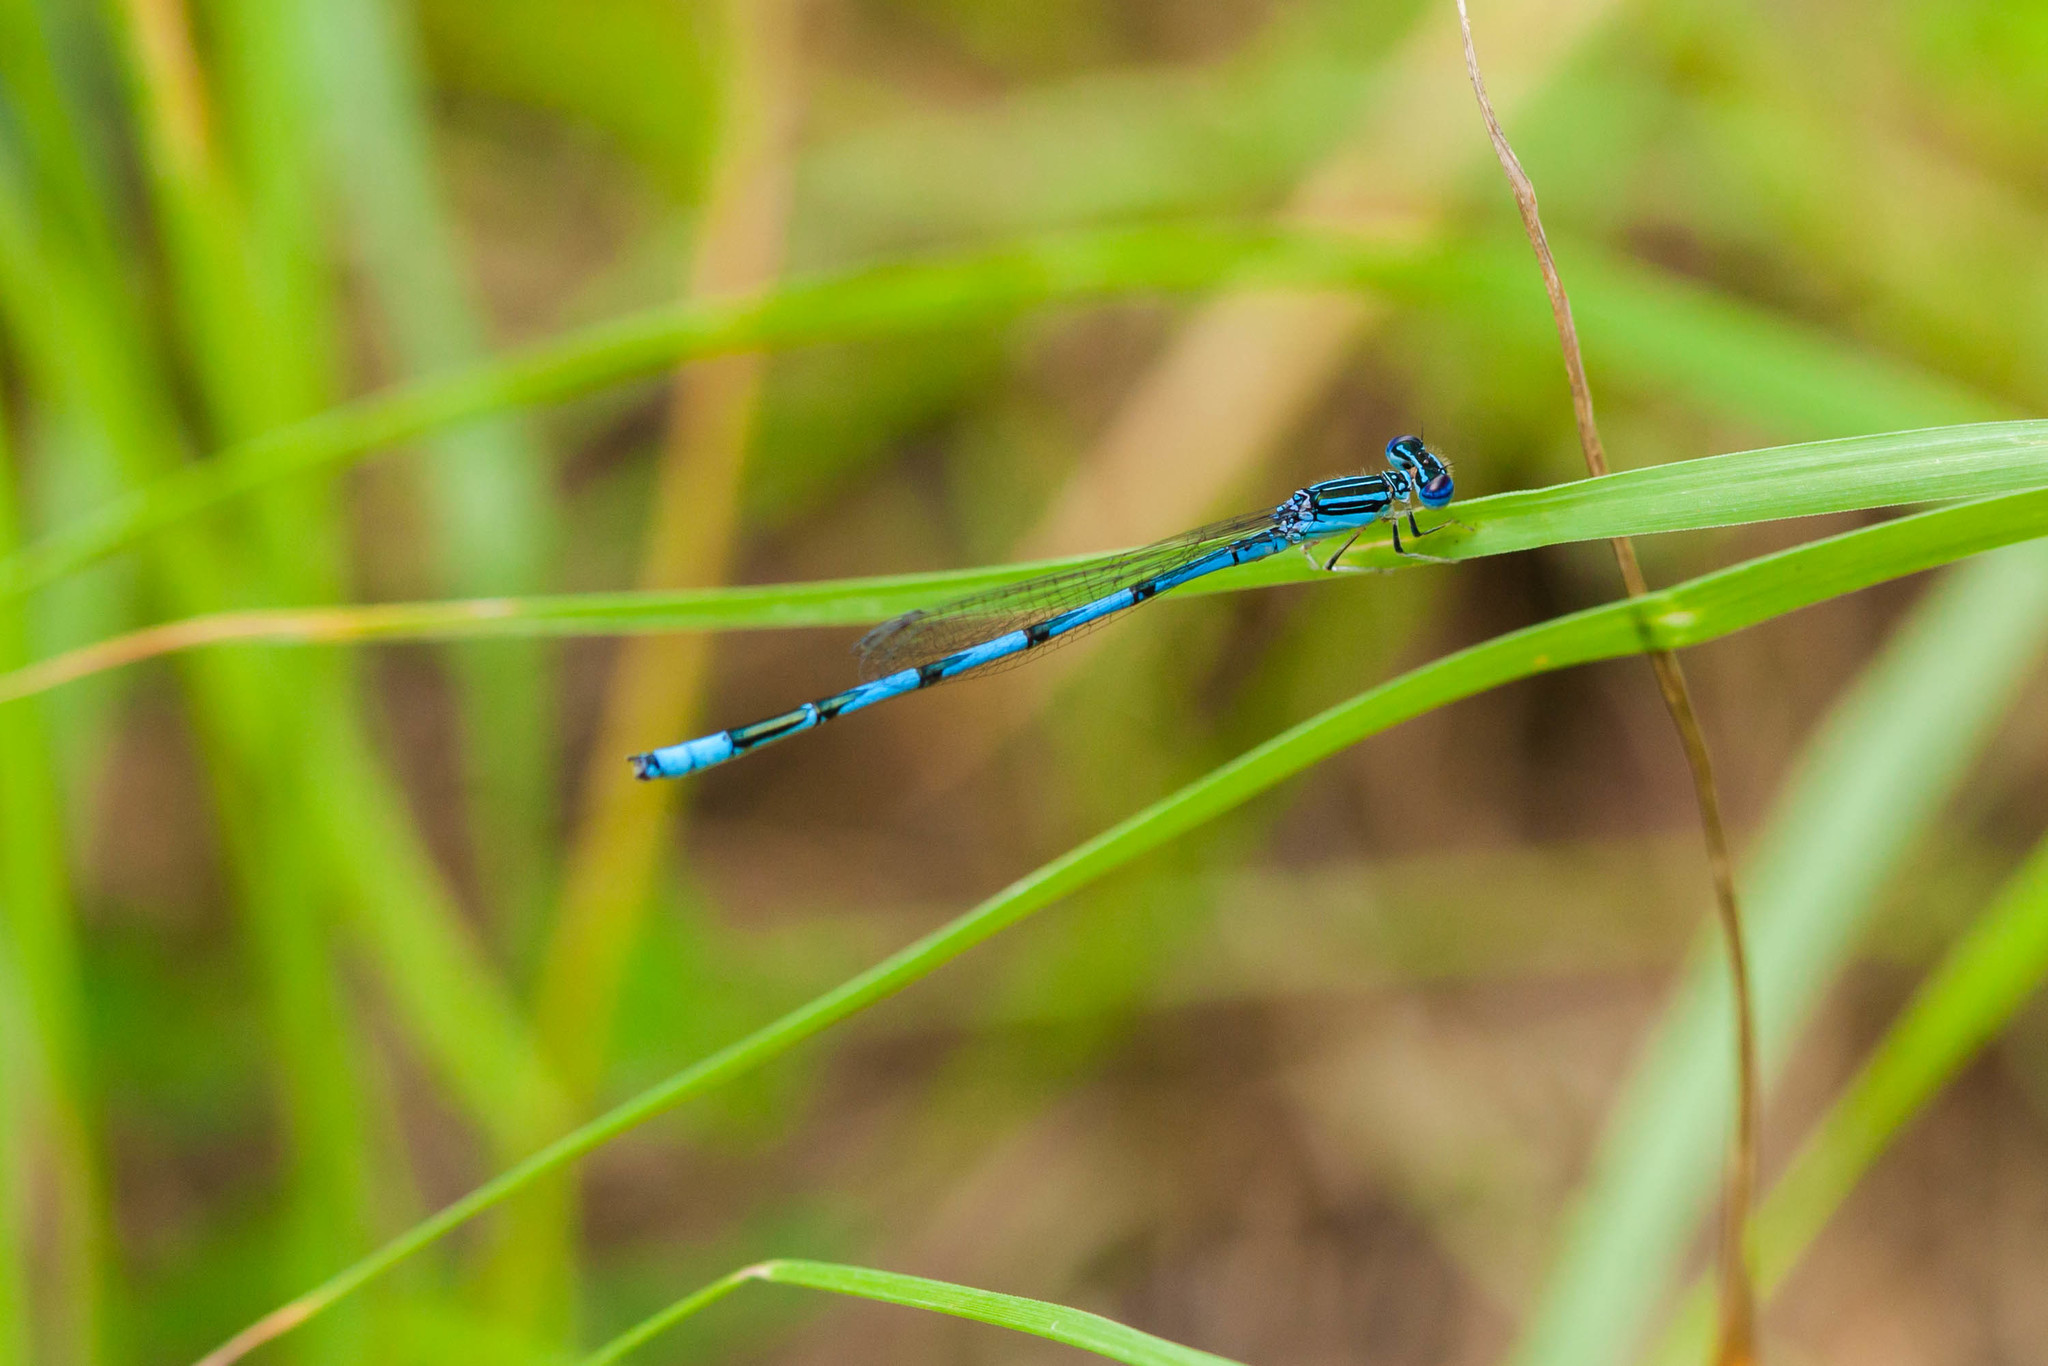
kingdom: Animalia
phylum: Arthropoda
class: Insecta
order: Odonata
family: Coenagrionidae
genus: Enallagma
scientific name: Enallagma basidens
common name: Double-striped bluet
